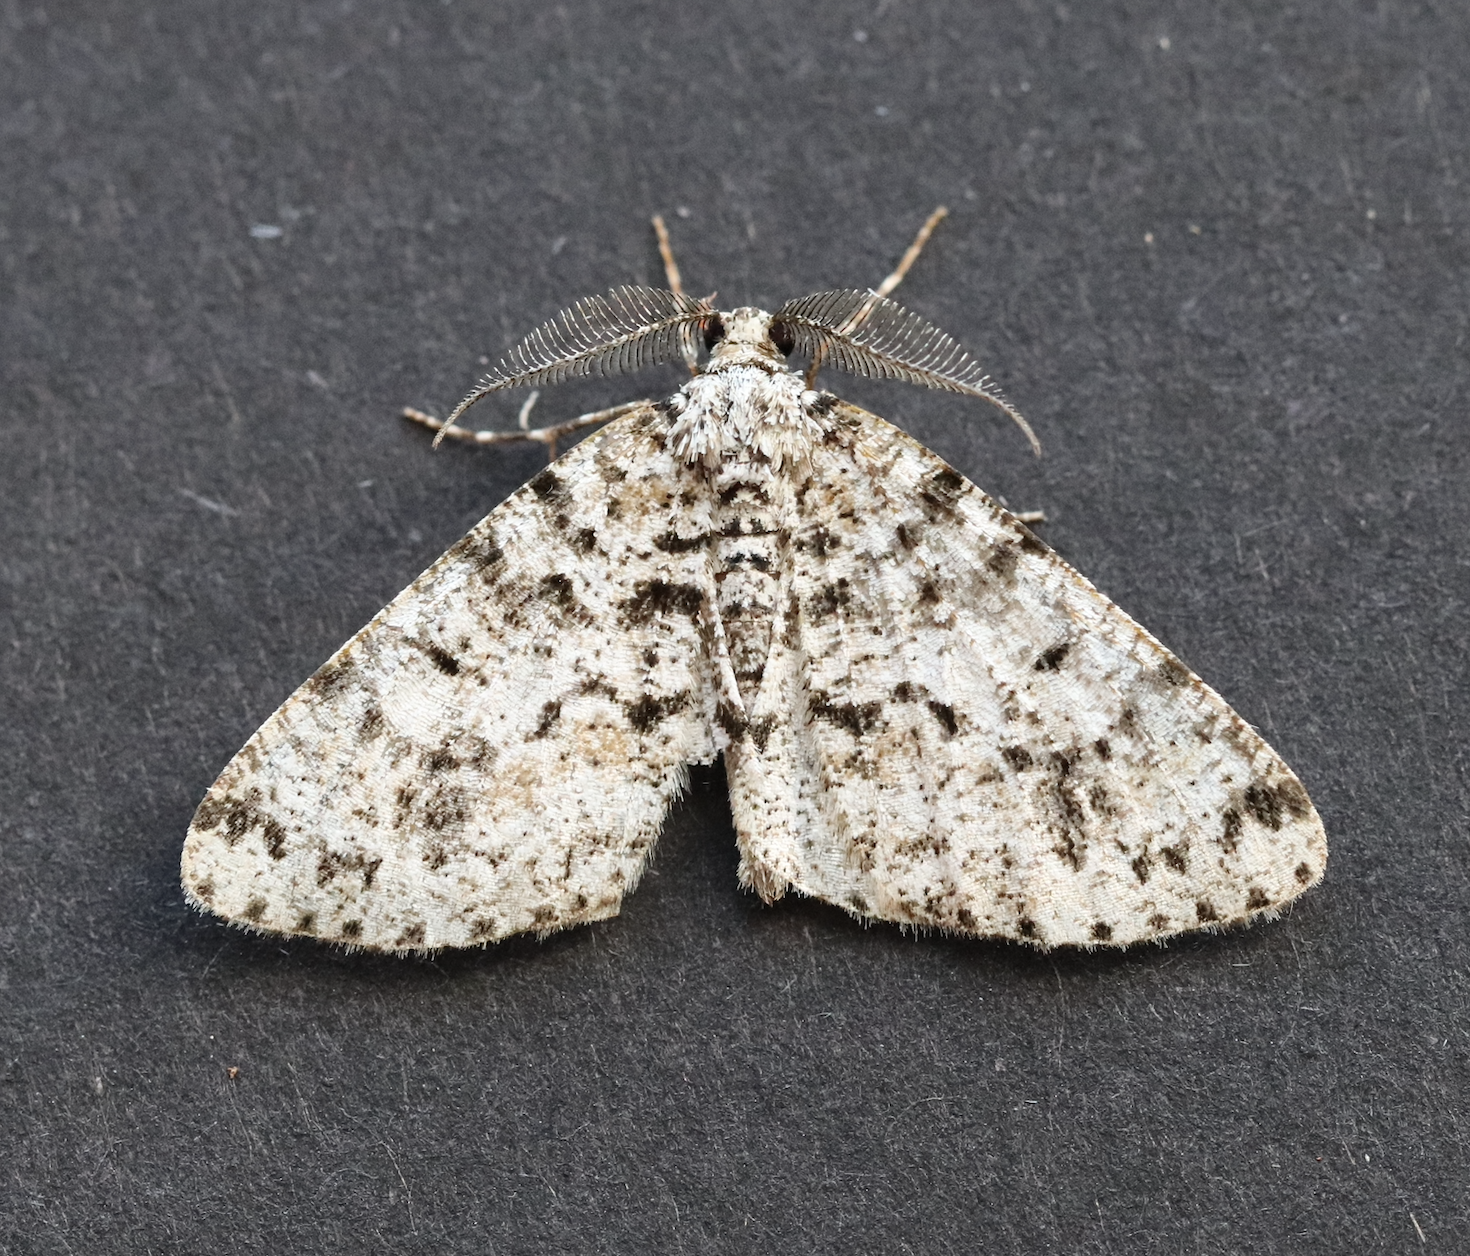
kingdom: Animalia
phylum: Arthropoda
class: Insecta
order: Lepidoptera
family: Geometridae
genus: Fagivorina
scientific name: Fagivorina arenaria
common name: Speckled beauty
